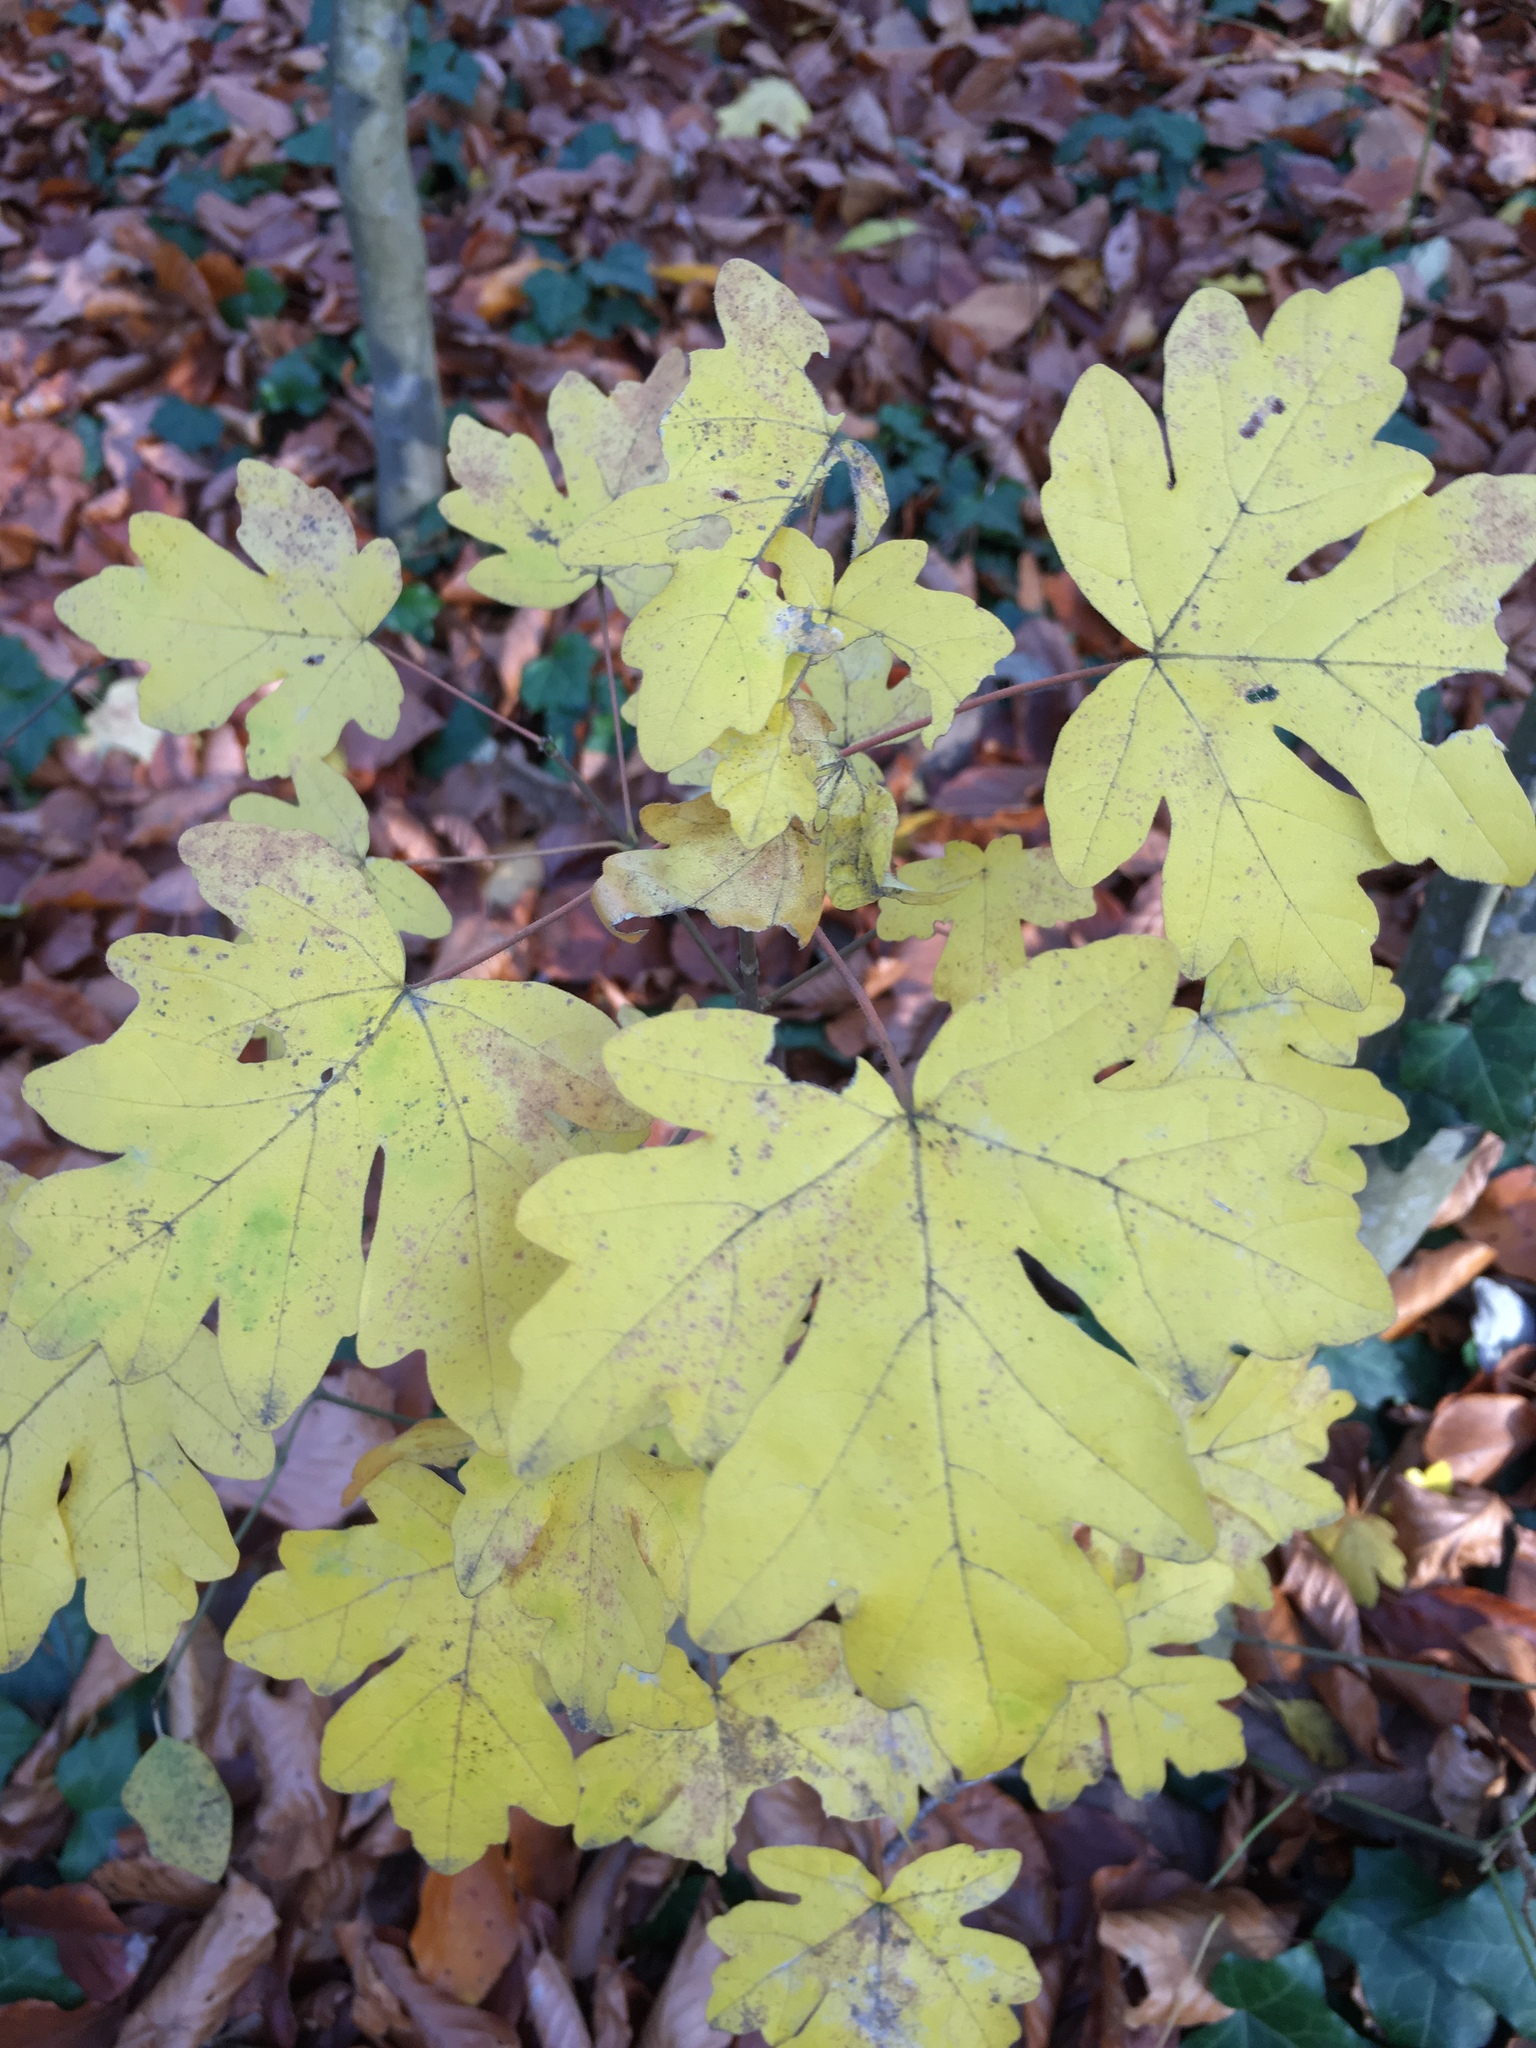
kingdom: Plantae
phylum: Tracheophyta
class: Magnoliopsida
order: Sapindales
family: Sapindaceae
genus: Acer
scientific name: Acer campestre
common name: Field maple
